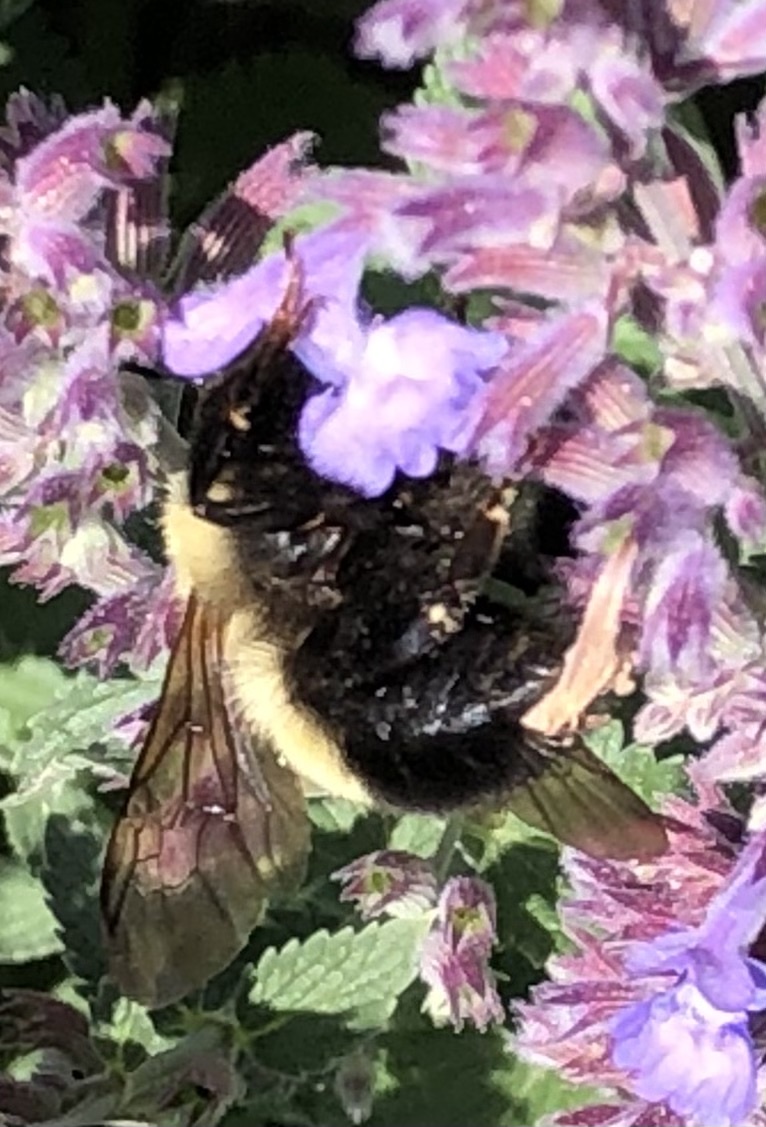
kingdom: Animalia
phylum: Arthropoda
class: Insecta
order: Hymenoptera
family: Apidae
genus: Bombus
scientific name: Bombus perplexus
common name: Confusing bumble bee
